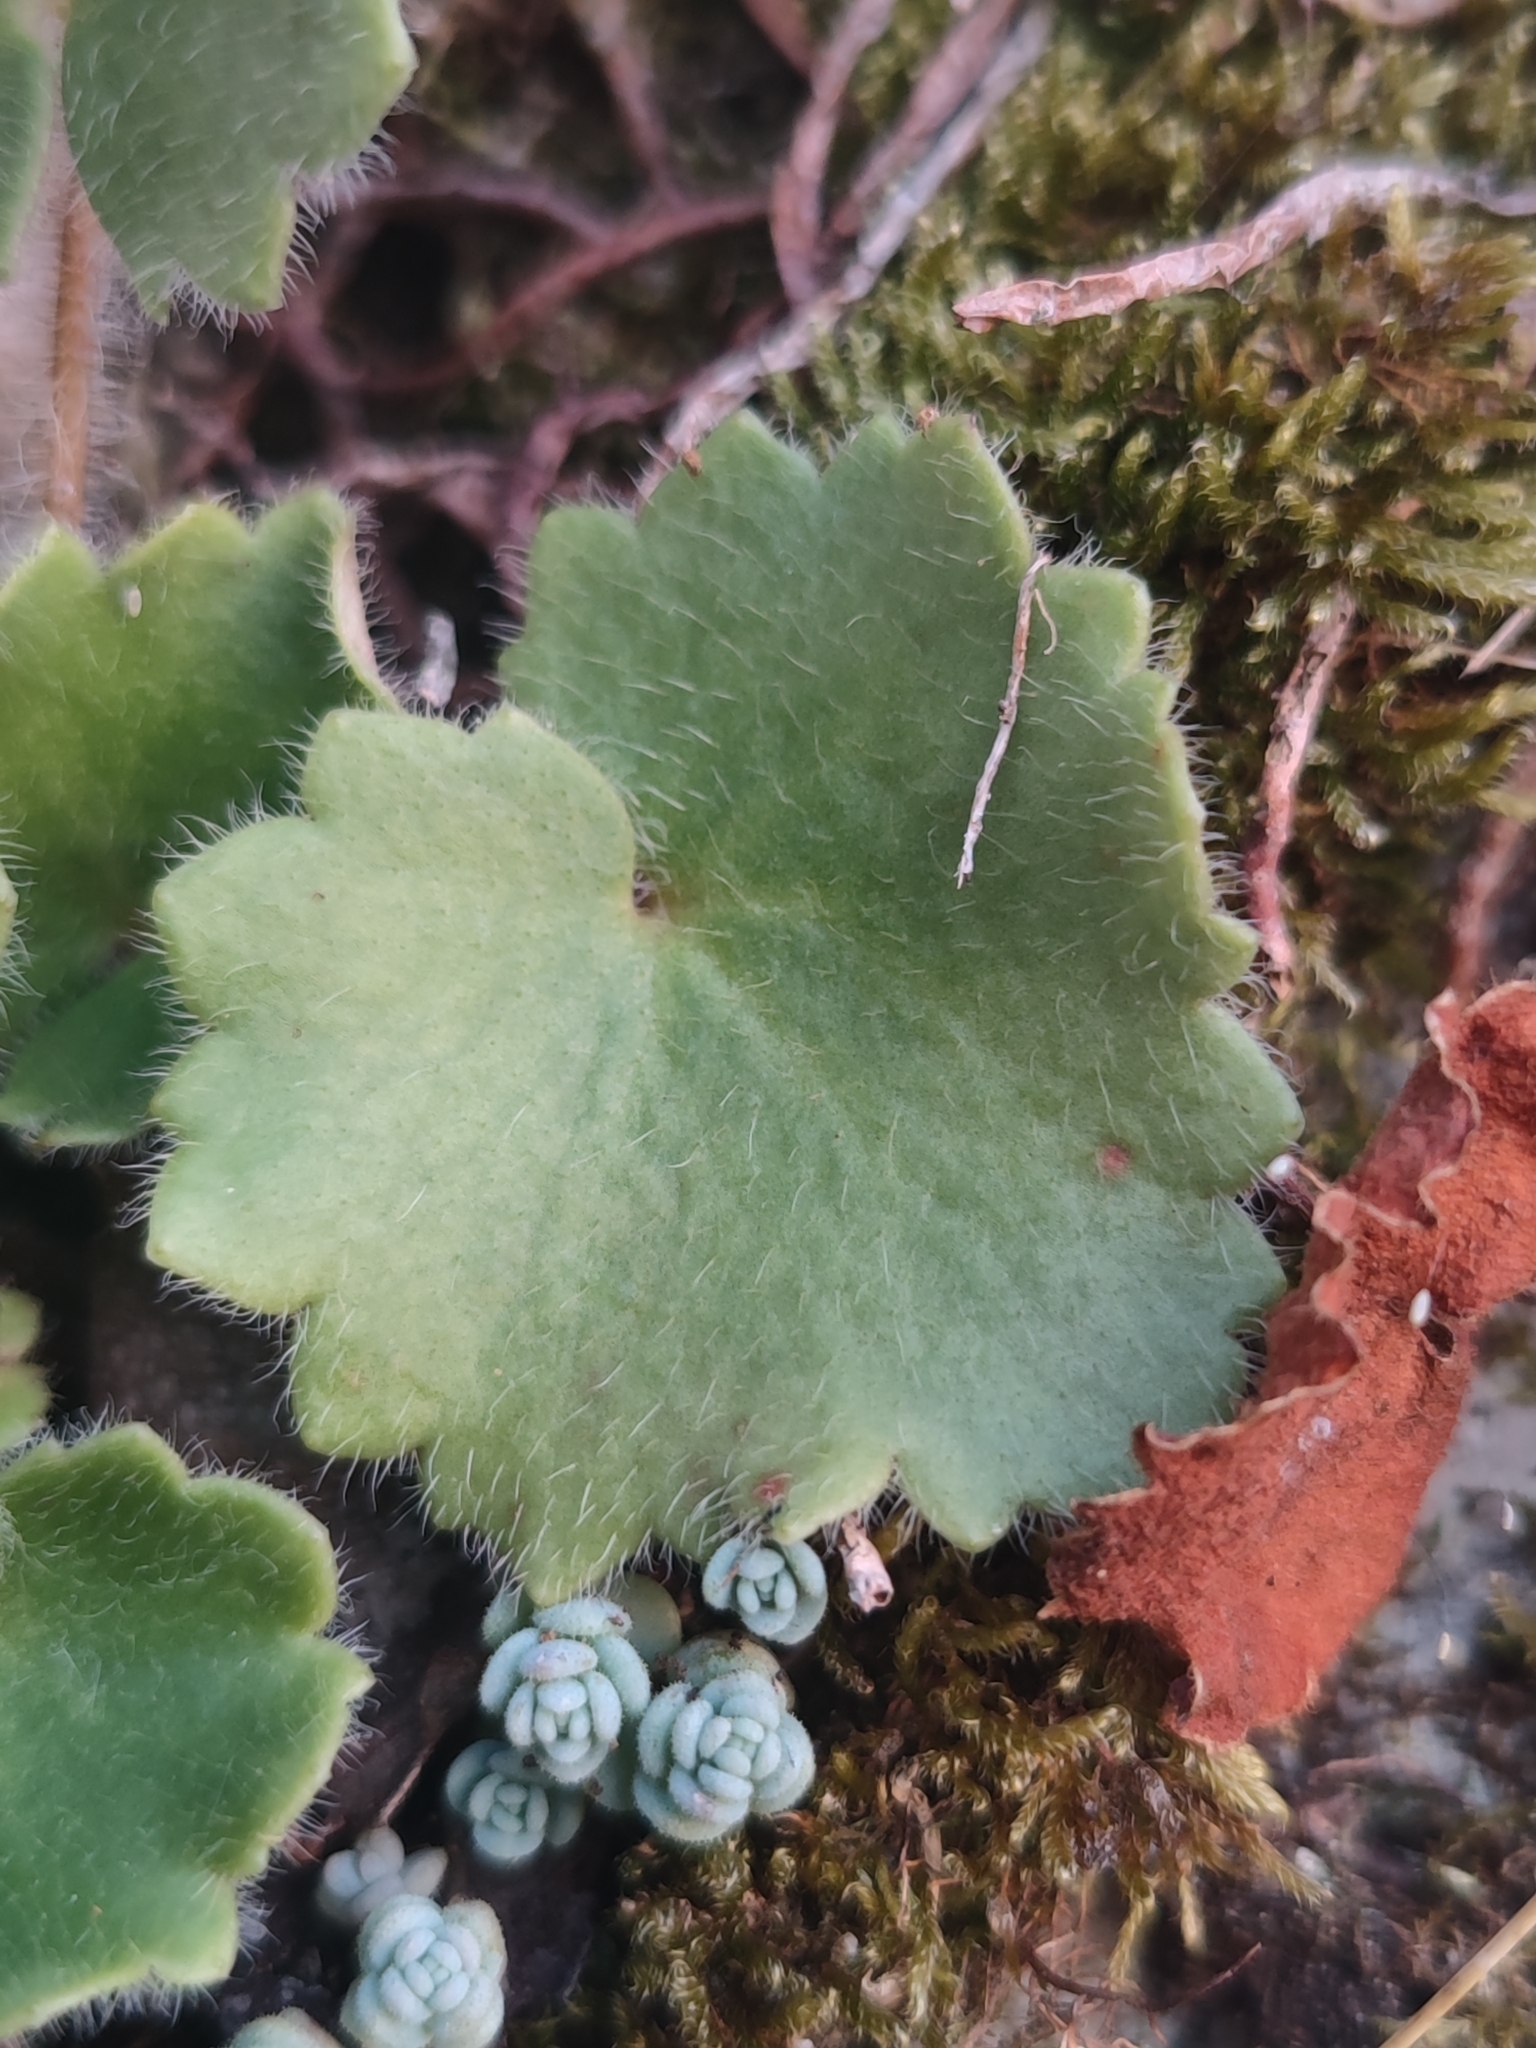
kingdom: Plantae
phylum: Tracheophyta
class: Magnoliopsida
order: Saxifragales
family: Saxifragaceae
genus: Saxifraga
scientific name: Saxifraga rotundifolia
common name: Round-leaved saxifrage
